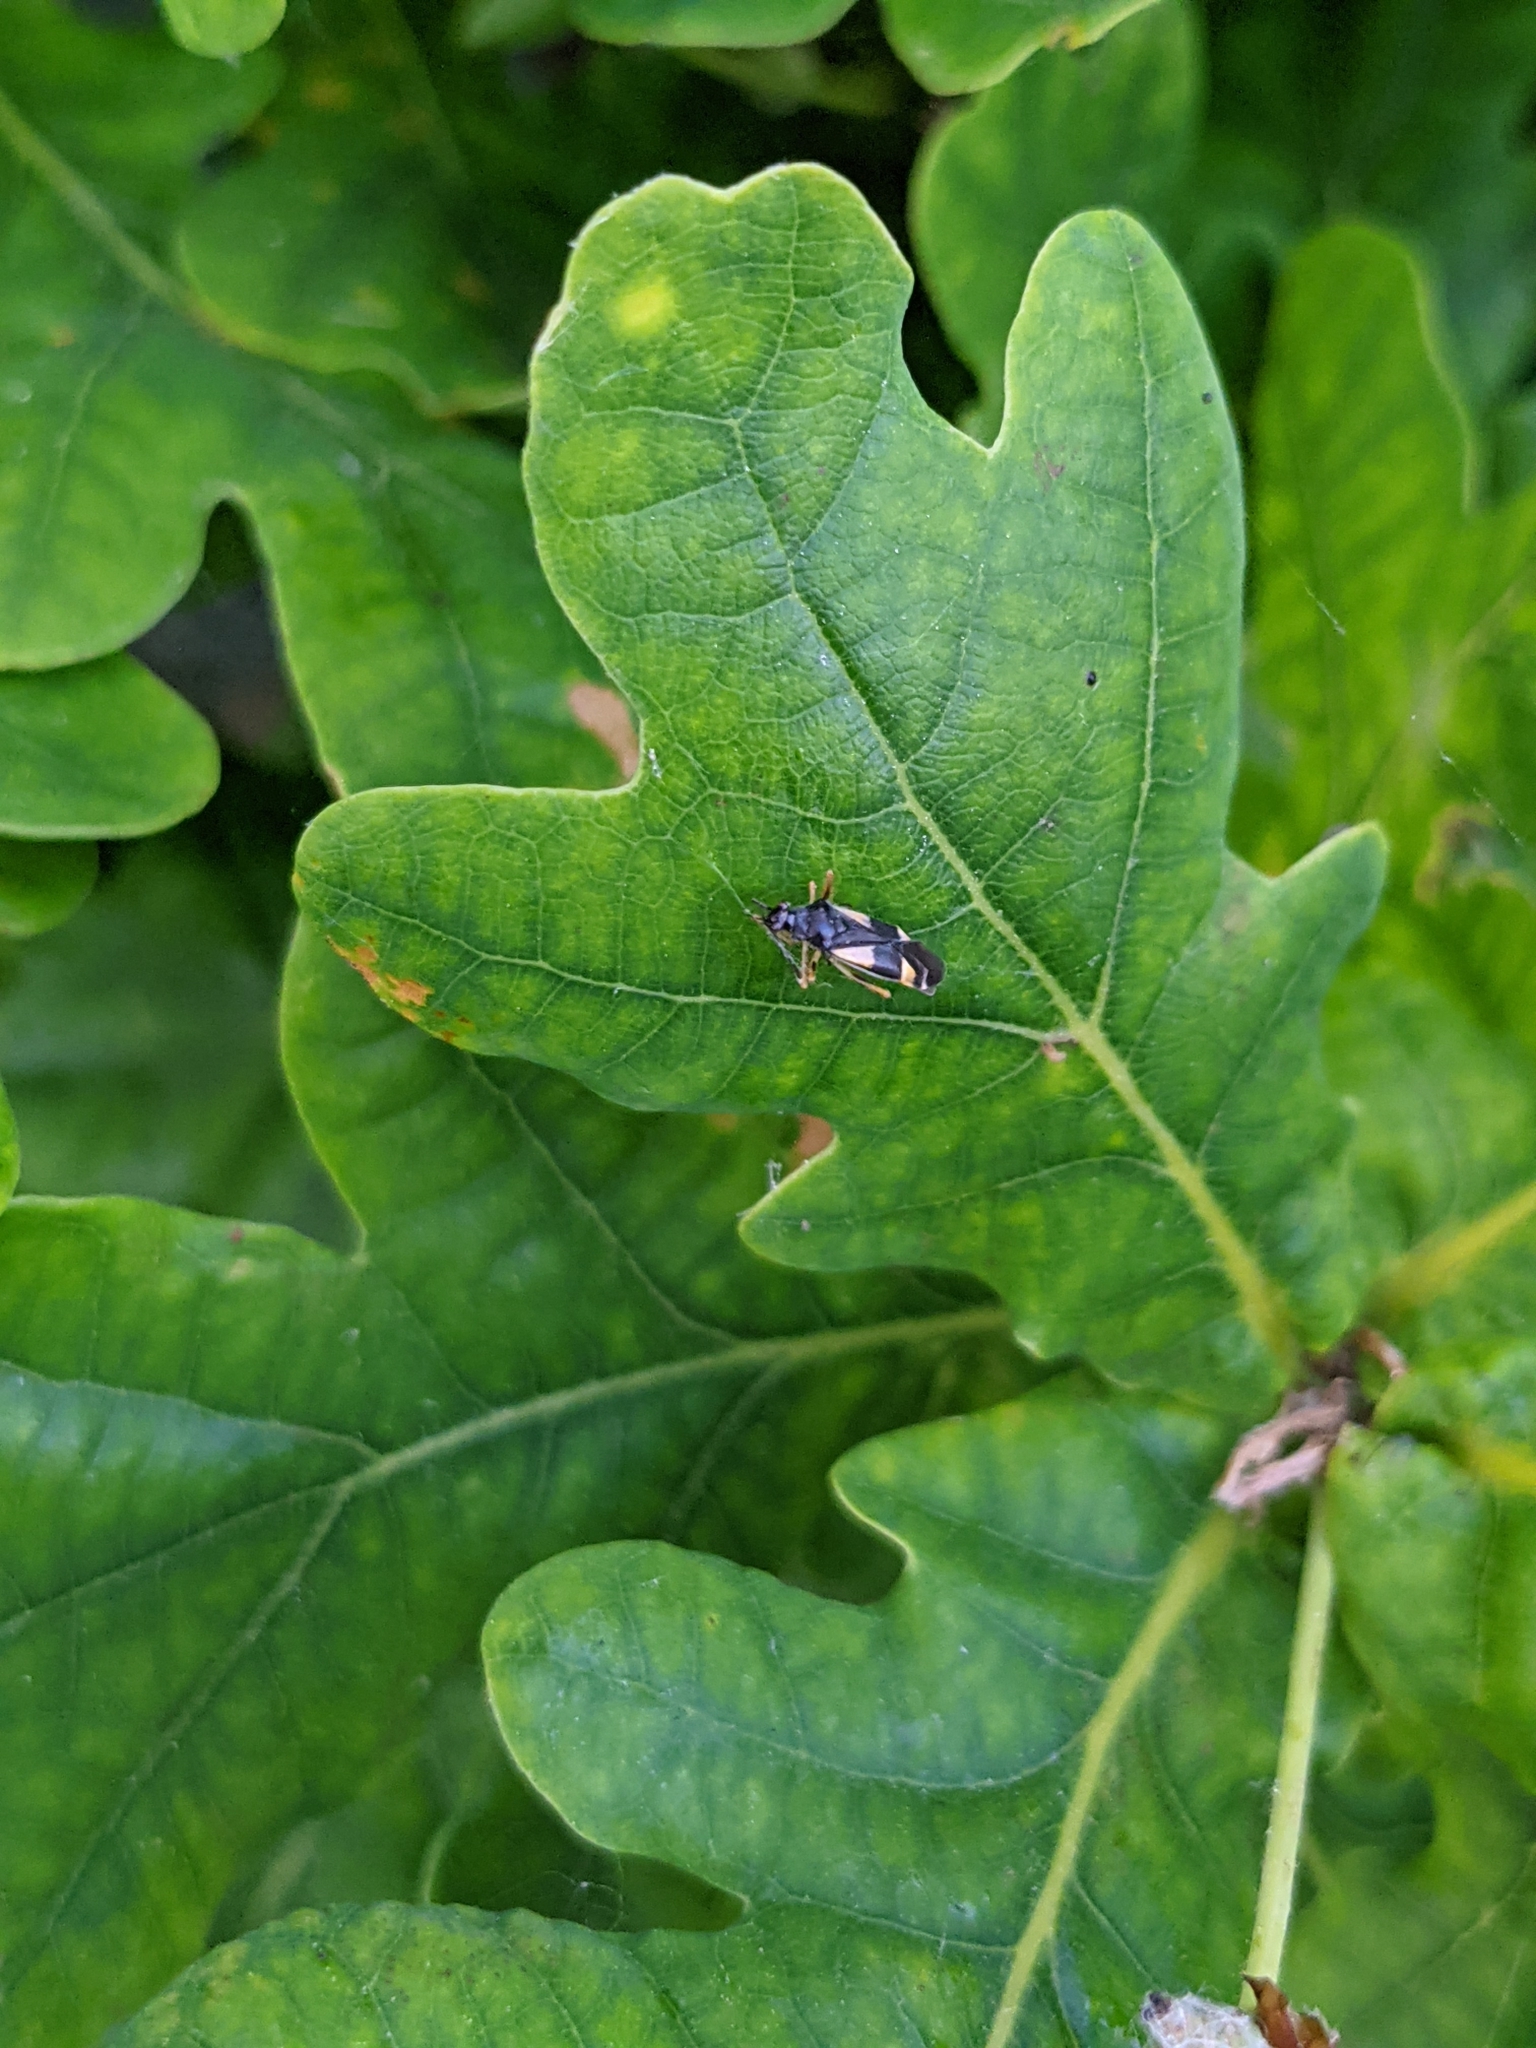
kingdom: Animalia
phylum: Arthropoda
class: Insecta
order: Hemiptera
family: Miridae
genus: Dryophilocoris
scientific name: Dryophilocoris flavoquadrimaculatus
